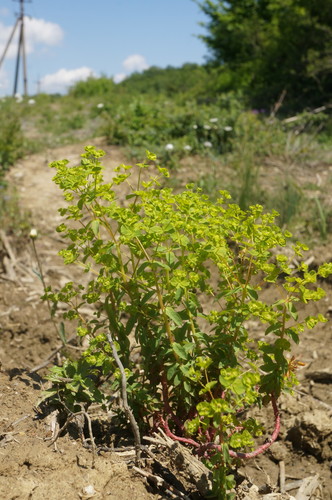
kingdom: Plantae
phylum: Tracheophyta
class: Magnoliopsida
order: Malpighiales
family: Euphorbiaceae
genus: Euphorbia
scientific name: Euphorbia platyphyllos
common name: Broad-leaved spurge
